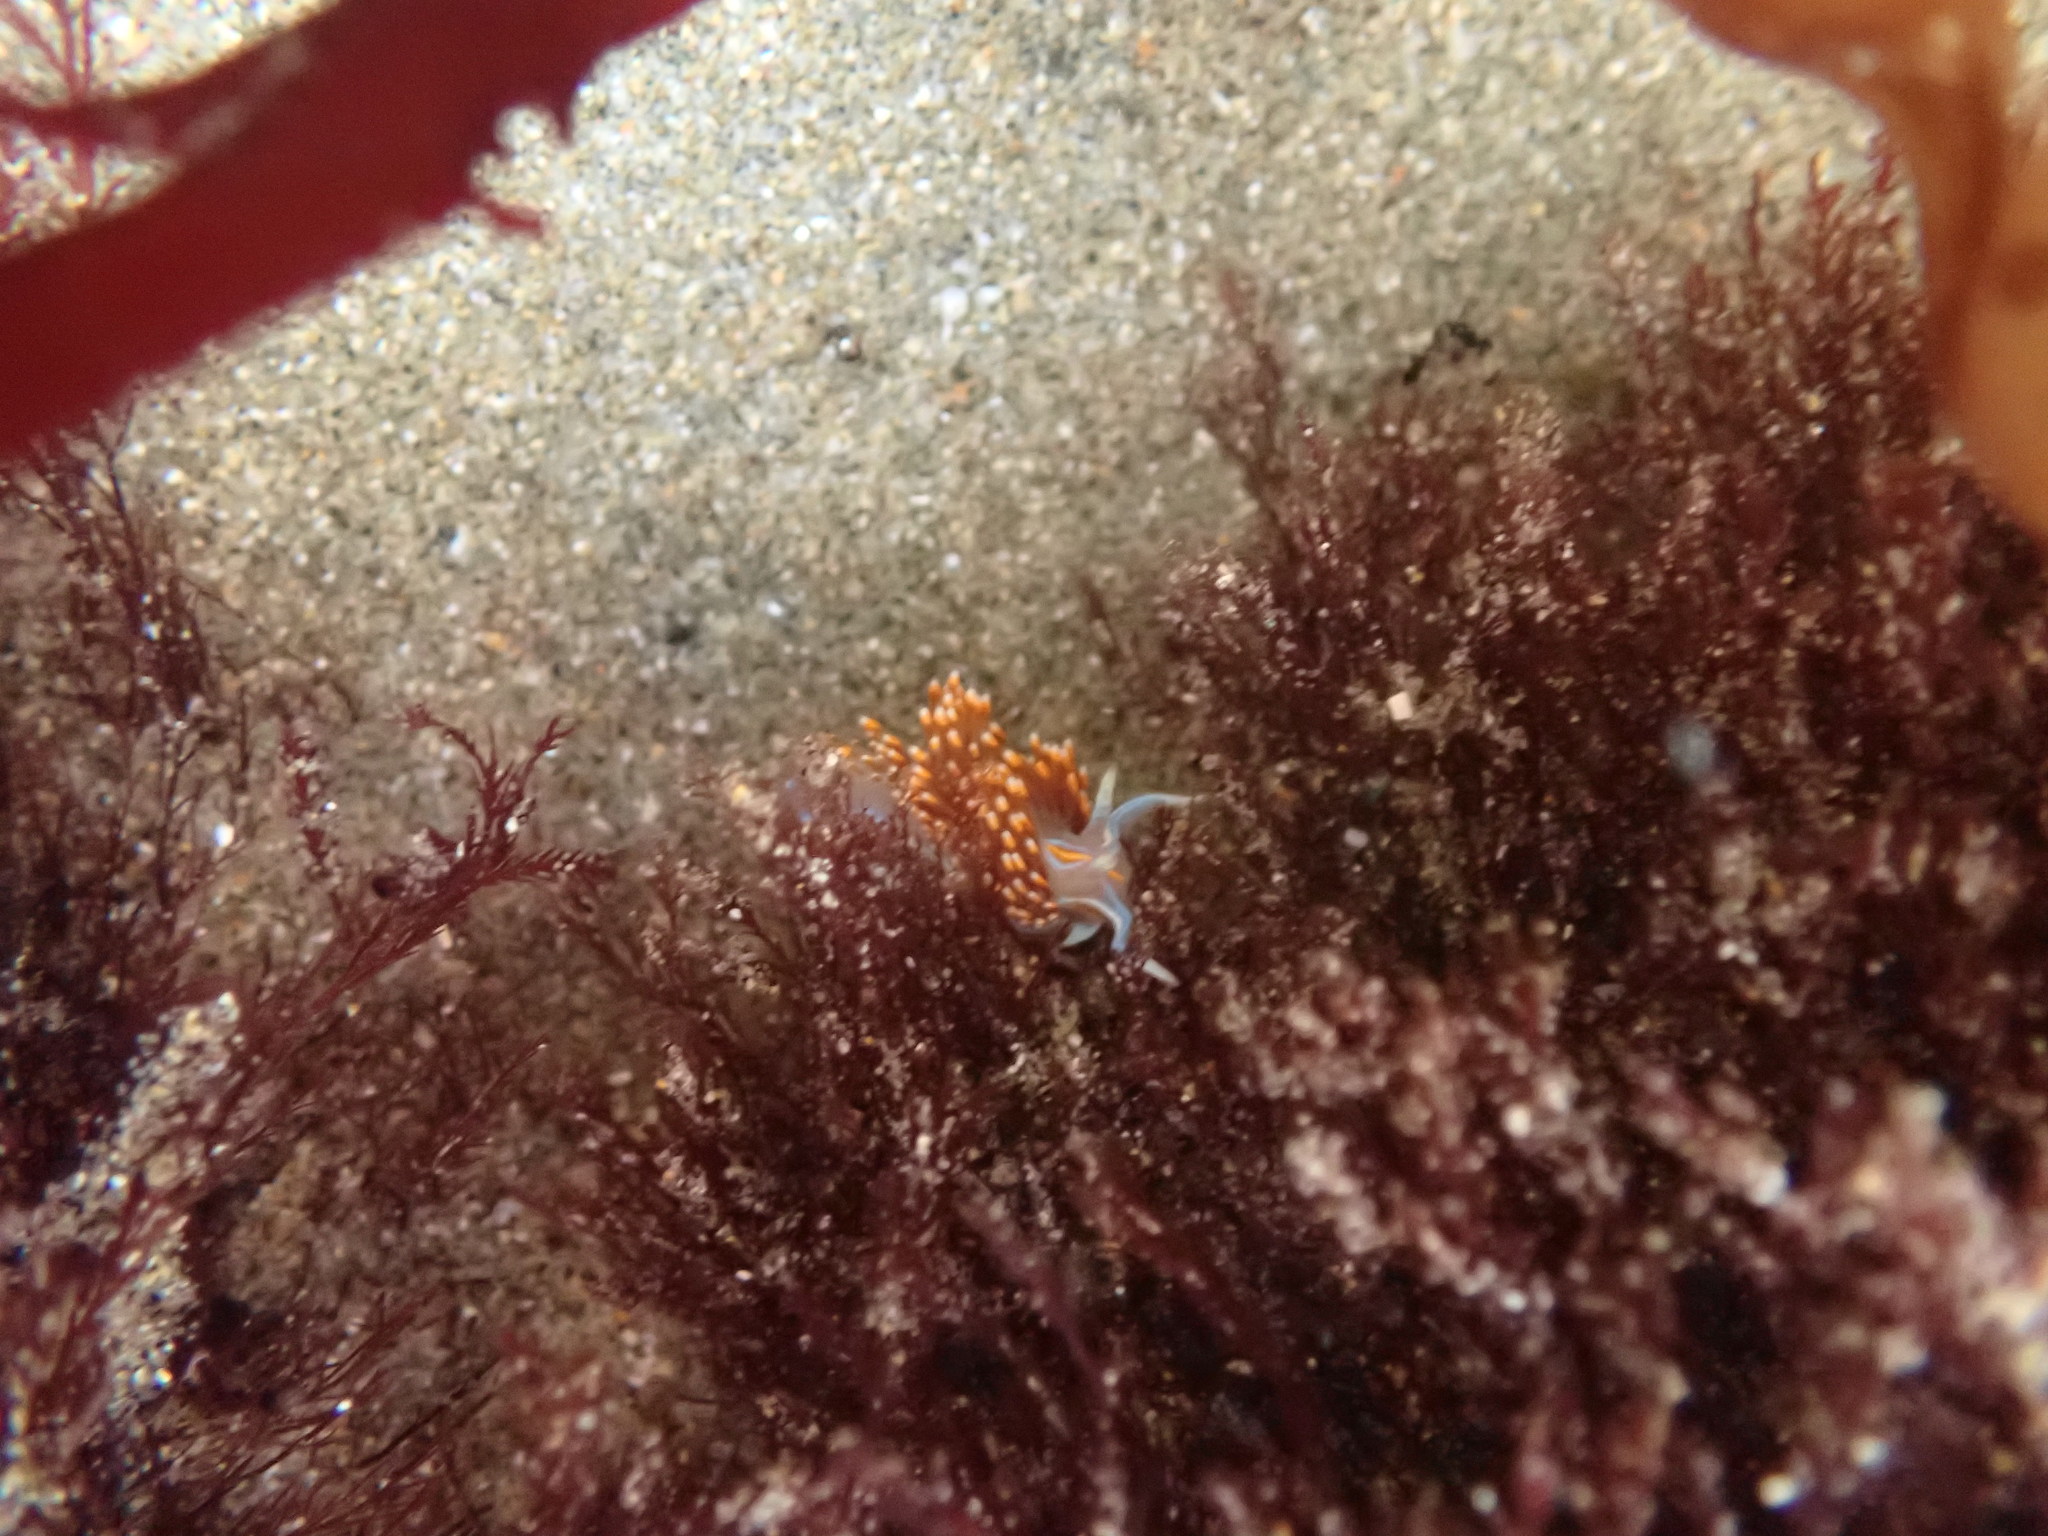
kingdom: Animalia
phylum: Mollusca
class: Gastropoda
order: Nudibranchia
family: Myrrhinidae
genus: Hermissenda
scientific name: Hermissenda opalescens
